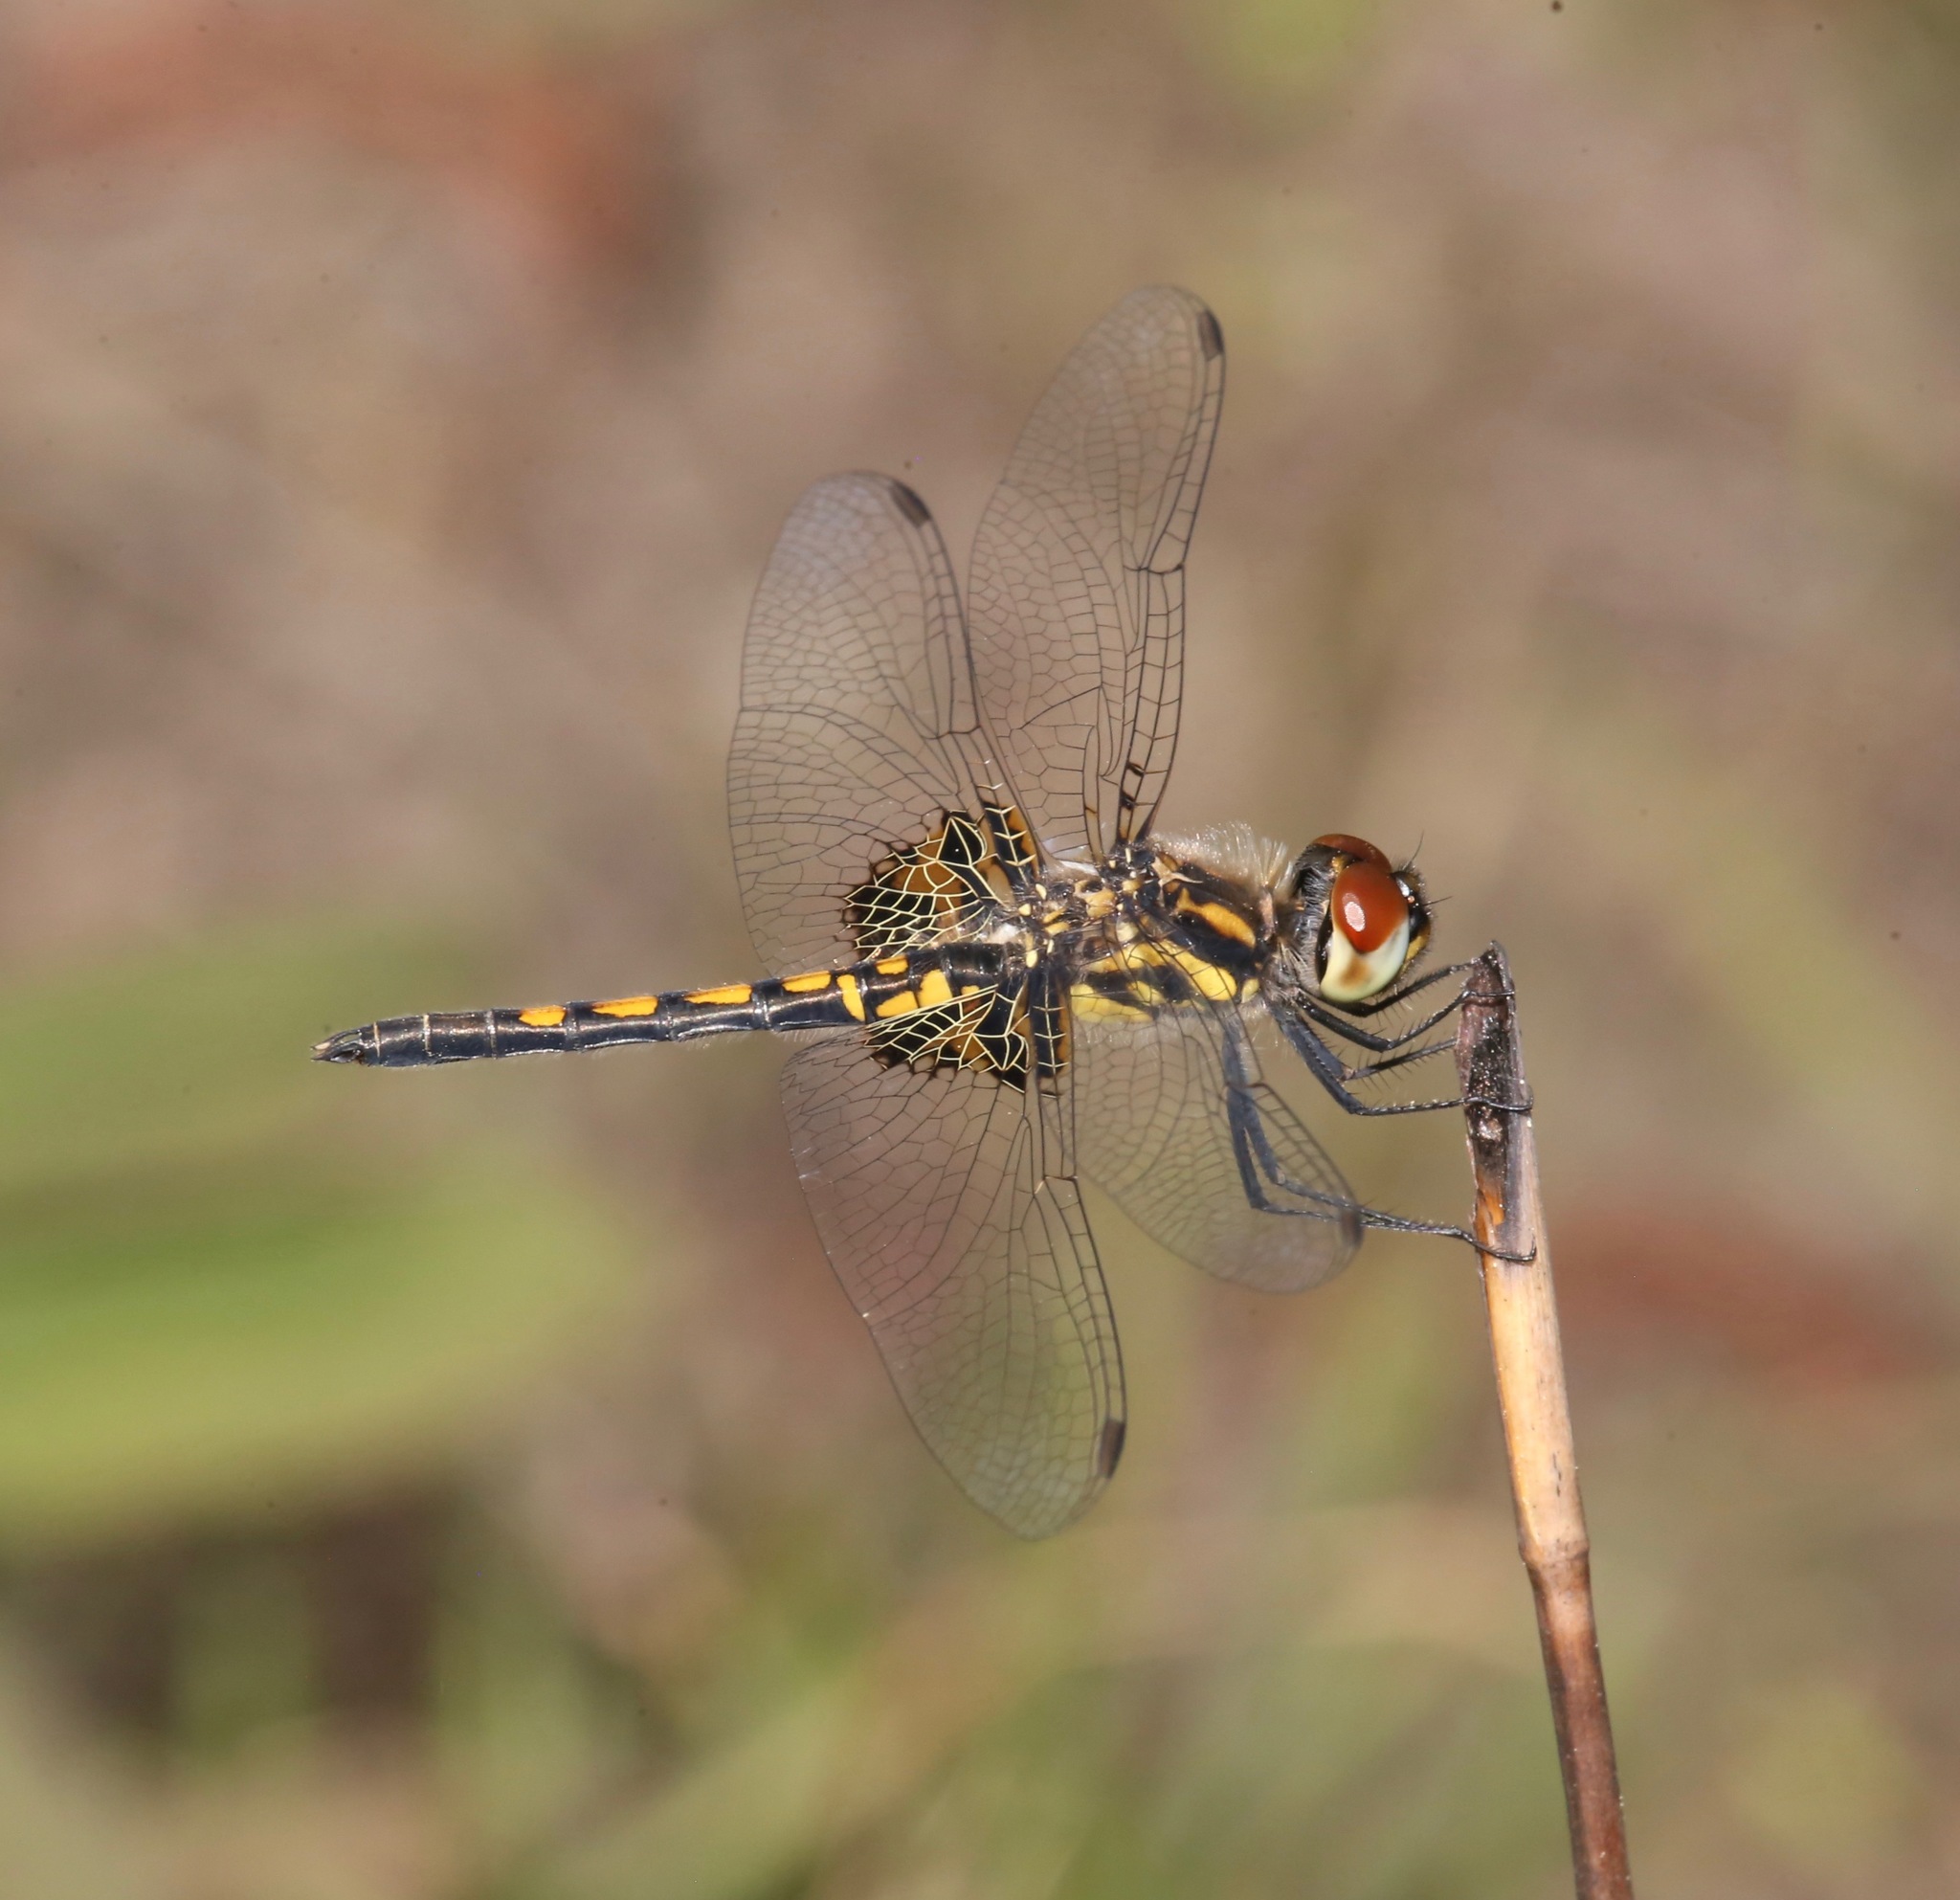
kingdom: Animalia
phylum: Arthropoda
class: Insecta
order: Odonata
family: Libellulidae
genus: Celithemis
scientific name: Celithemis ornata
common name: Ornate pennant
